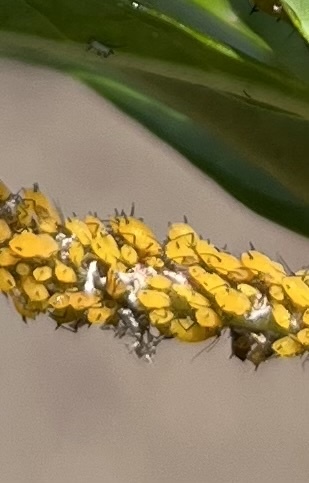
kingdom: Animalia
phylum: Arthropoda
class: Insecta
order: Hemiptera
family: Aphididae
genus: Aphis
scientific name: Aphis nerii
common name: Oleander aphid
